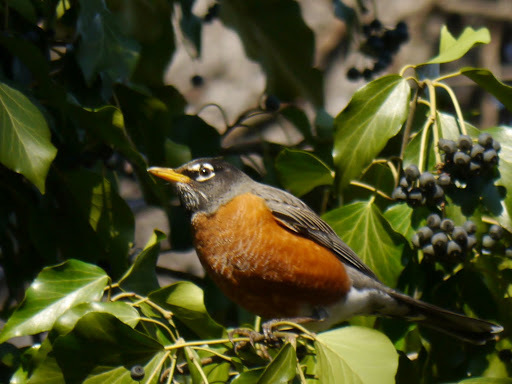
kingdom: Animalia
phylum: Chordata
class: Aves
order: Passeriformes
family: Turdidae
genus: Turdus
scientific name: Turdus migratorius
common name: American robin
